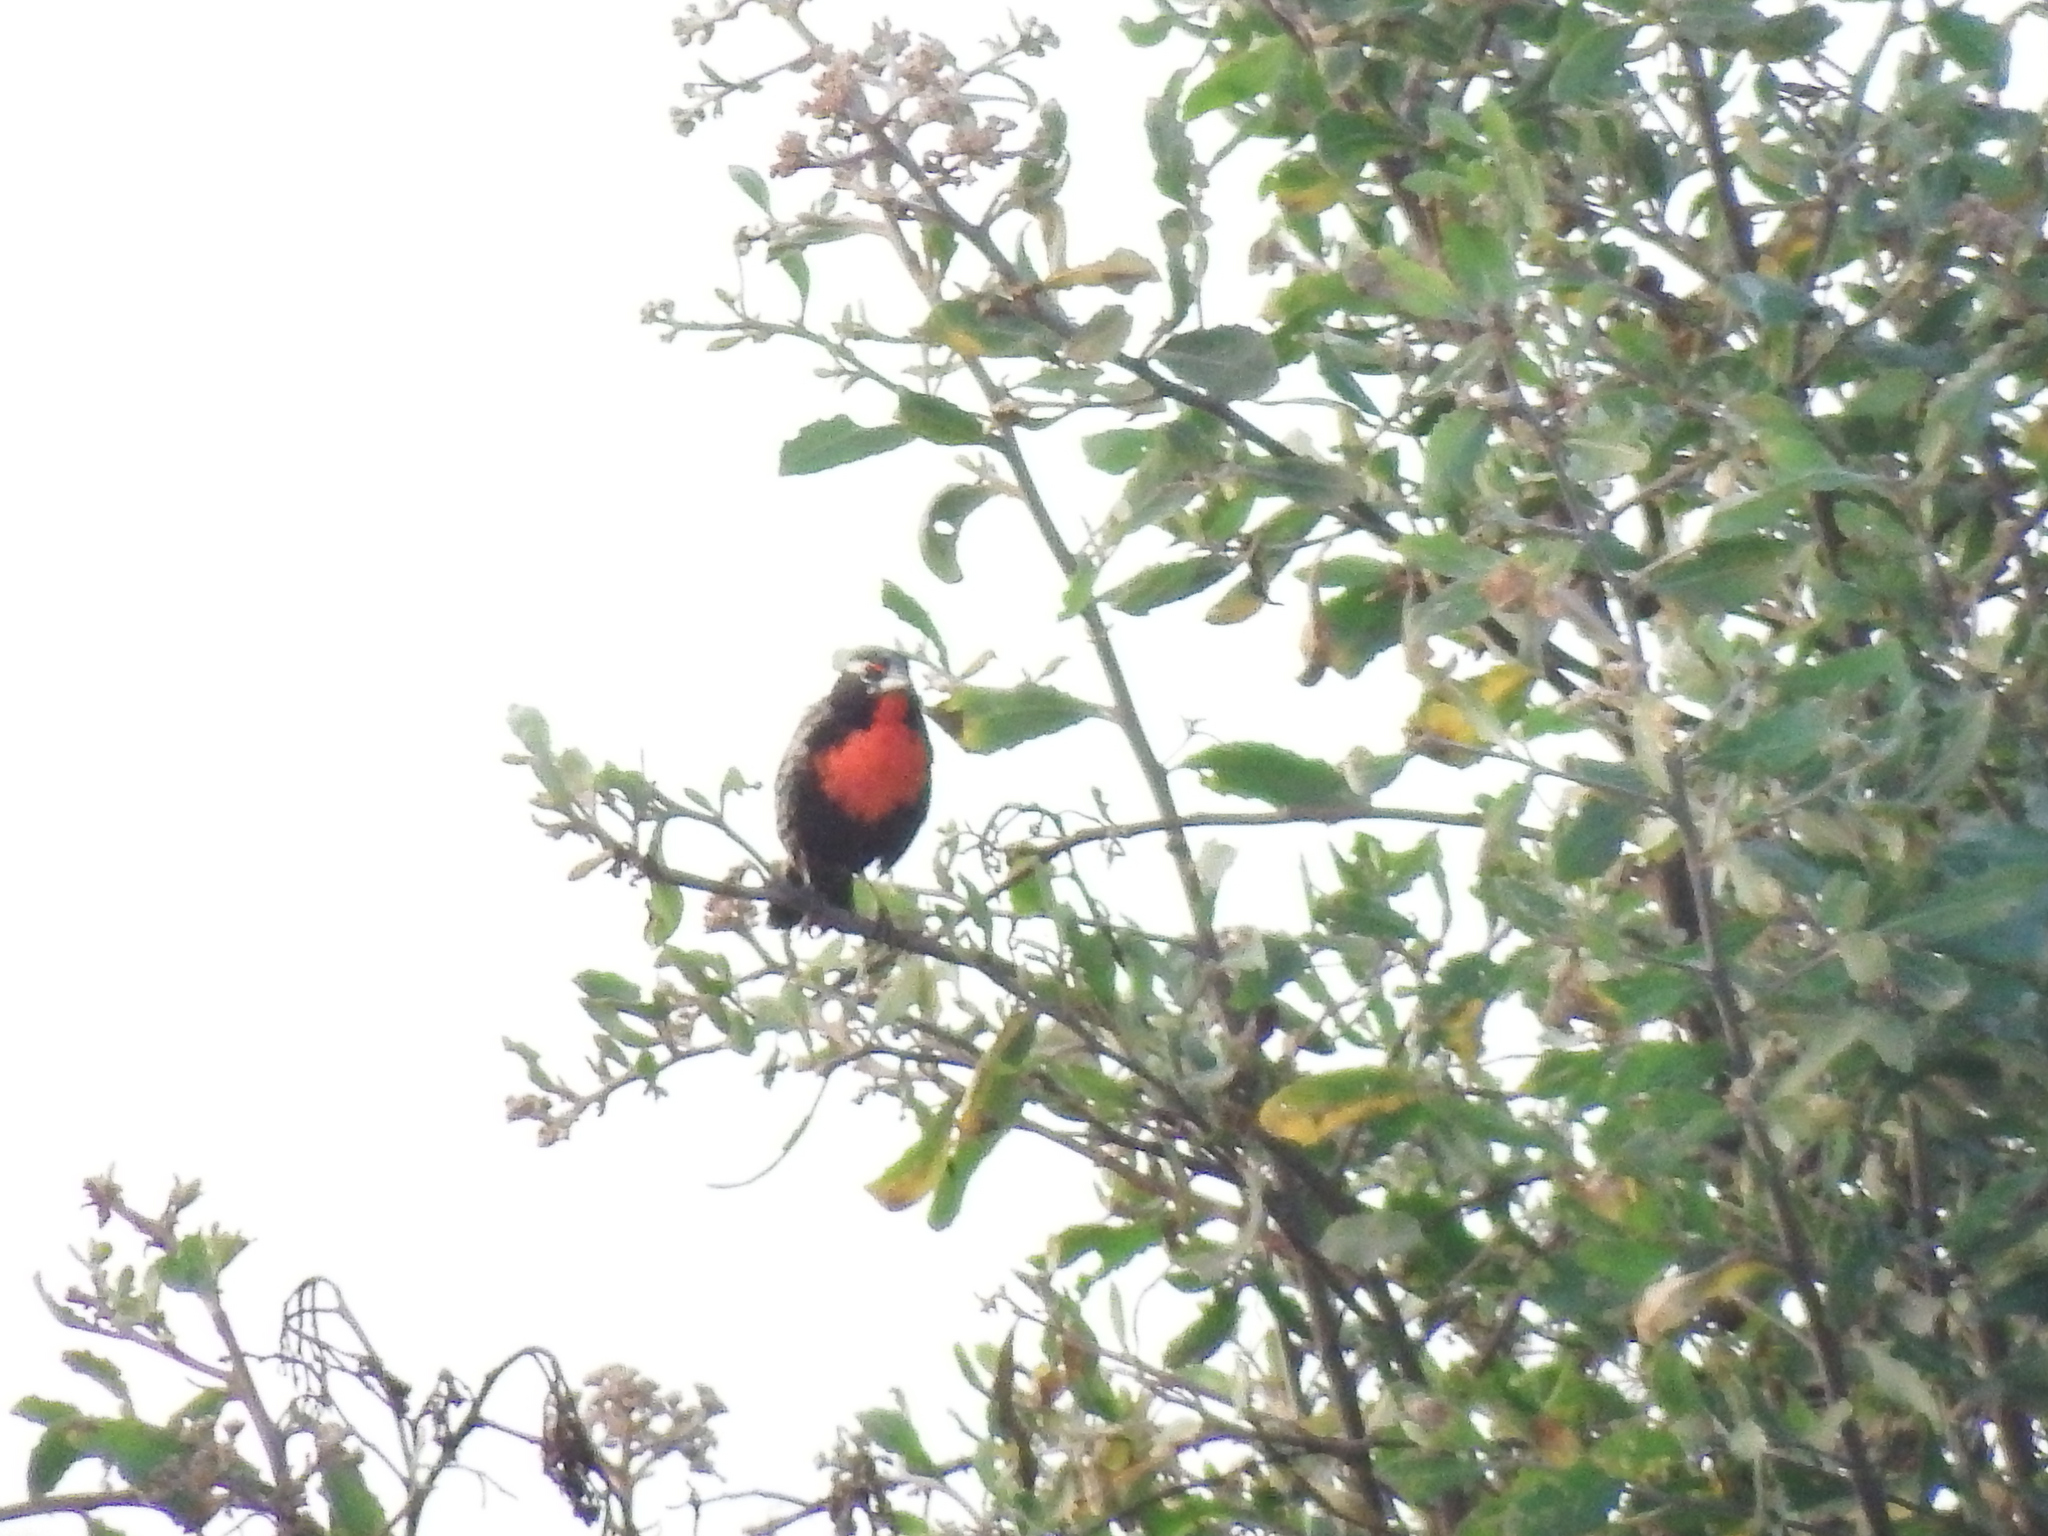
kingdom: Animalia
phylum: Chordata
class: Aves
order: Passeriformes
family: Icteridae
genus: Sturnella
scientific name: Sturnella bellicosa
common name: Peruvian meadowlark
